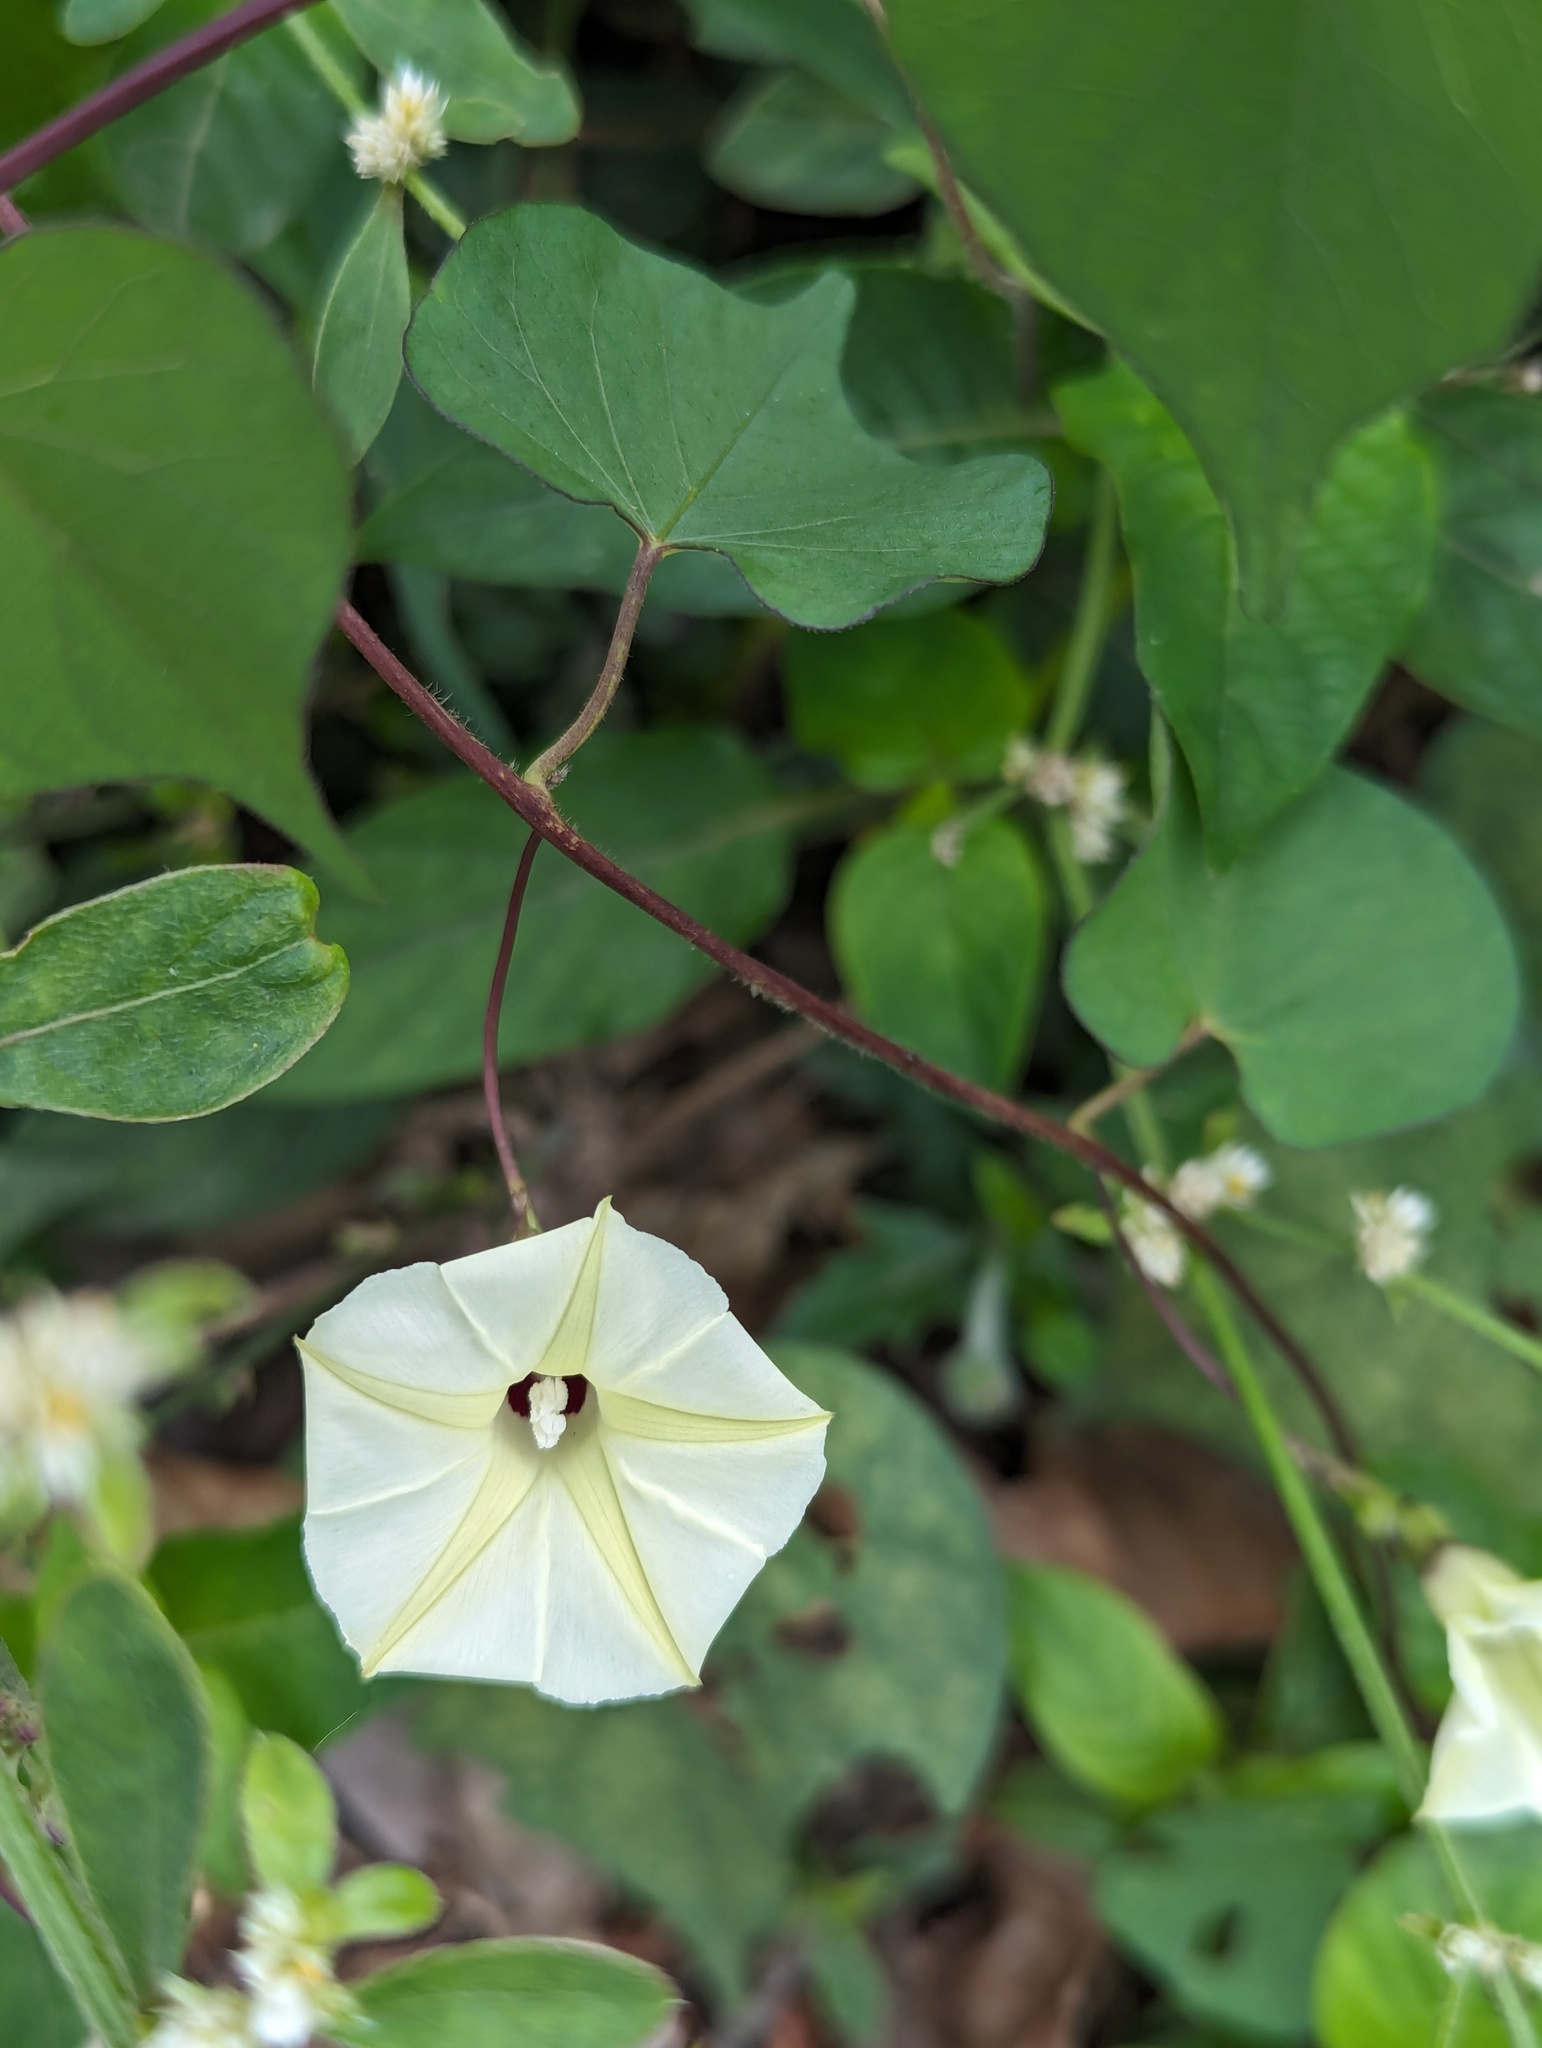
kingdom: Plantae
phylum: Tracheophyta
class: Magnoliopsida
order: Solanales
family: Convolvulaceae
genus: Ipomoea
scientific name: Ipomoea obscura
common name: Obscure morning-glory
